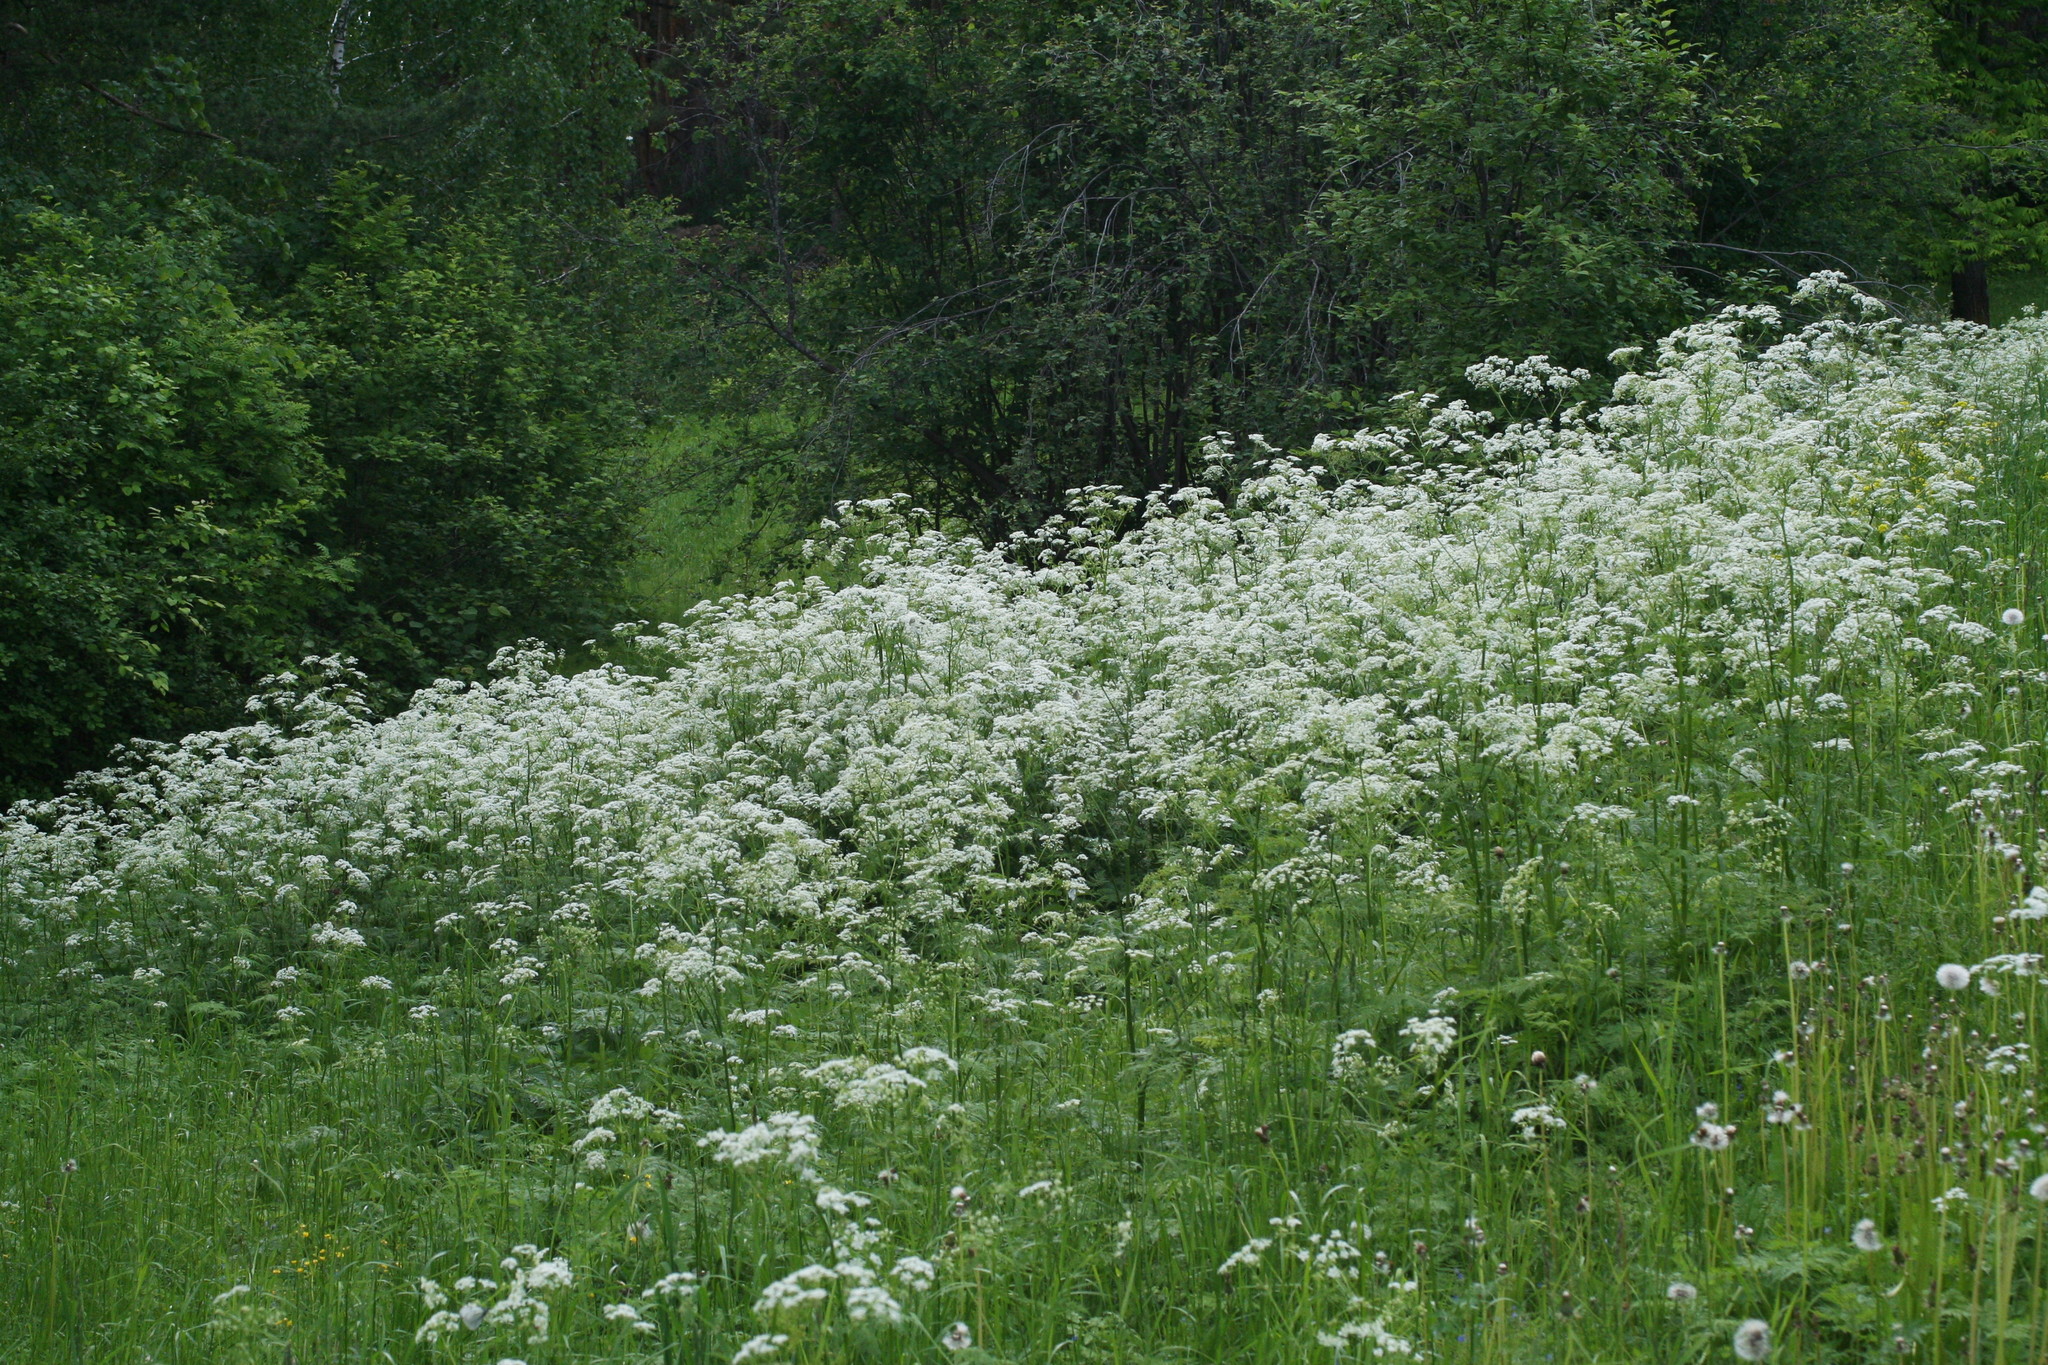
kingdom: Plantae
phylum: Tracheophyta
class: Magnoliopsida
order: Apiales
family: Apiaceae
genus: Anthriscus
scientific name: Anthriscus sylvestris
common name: Cow parsley
